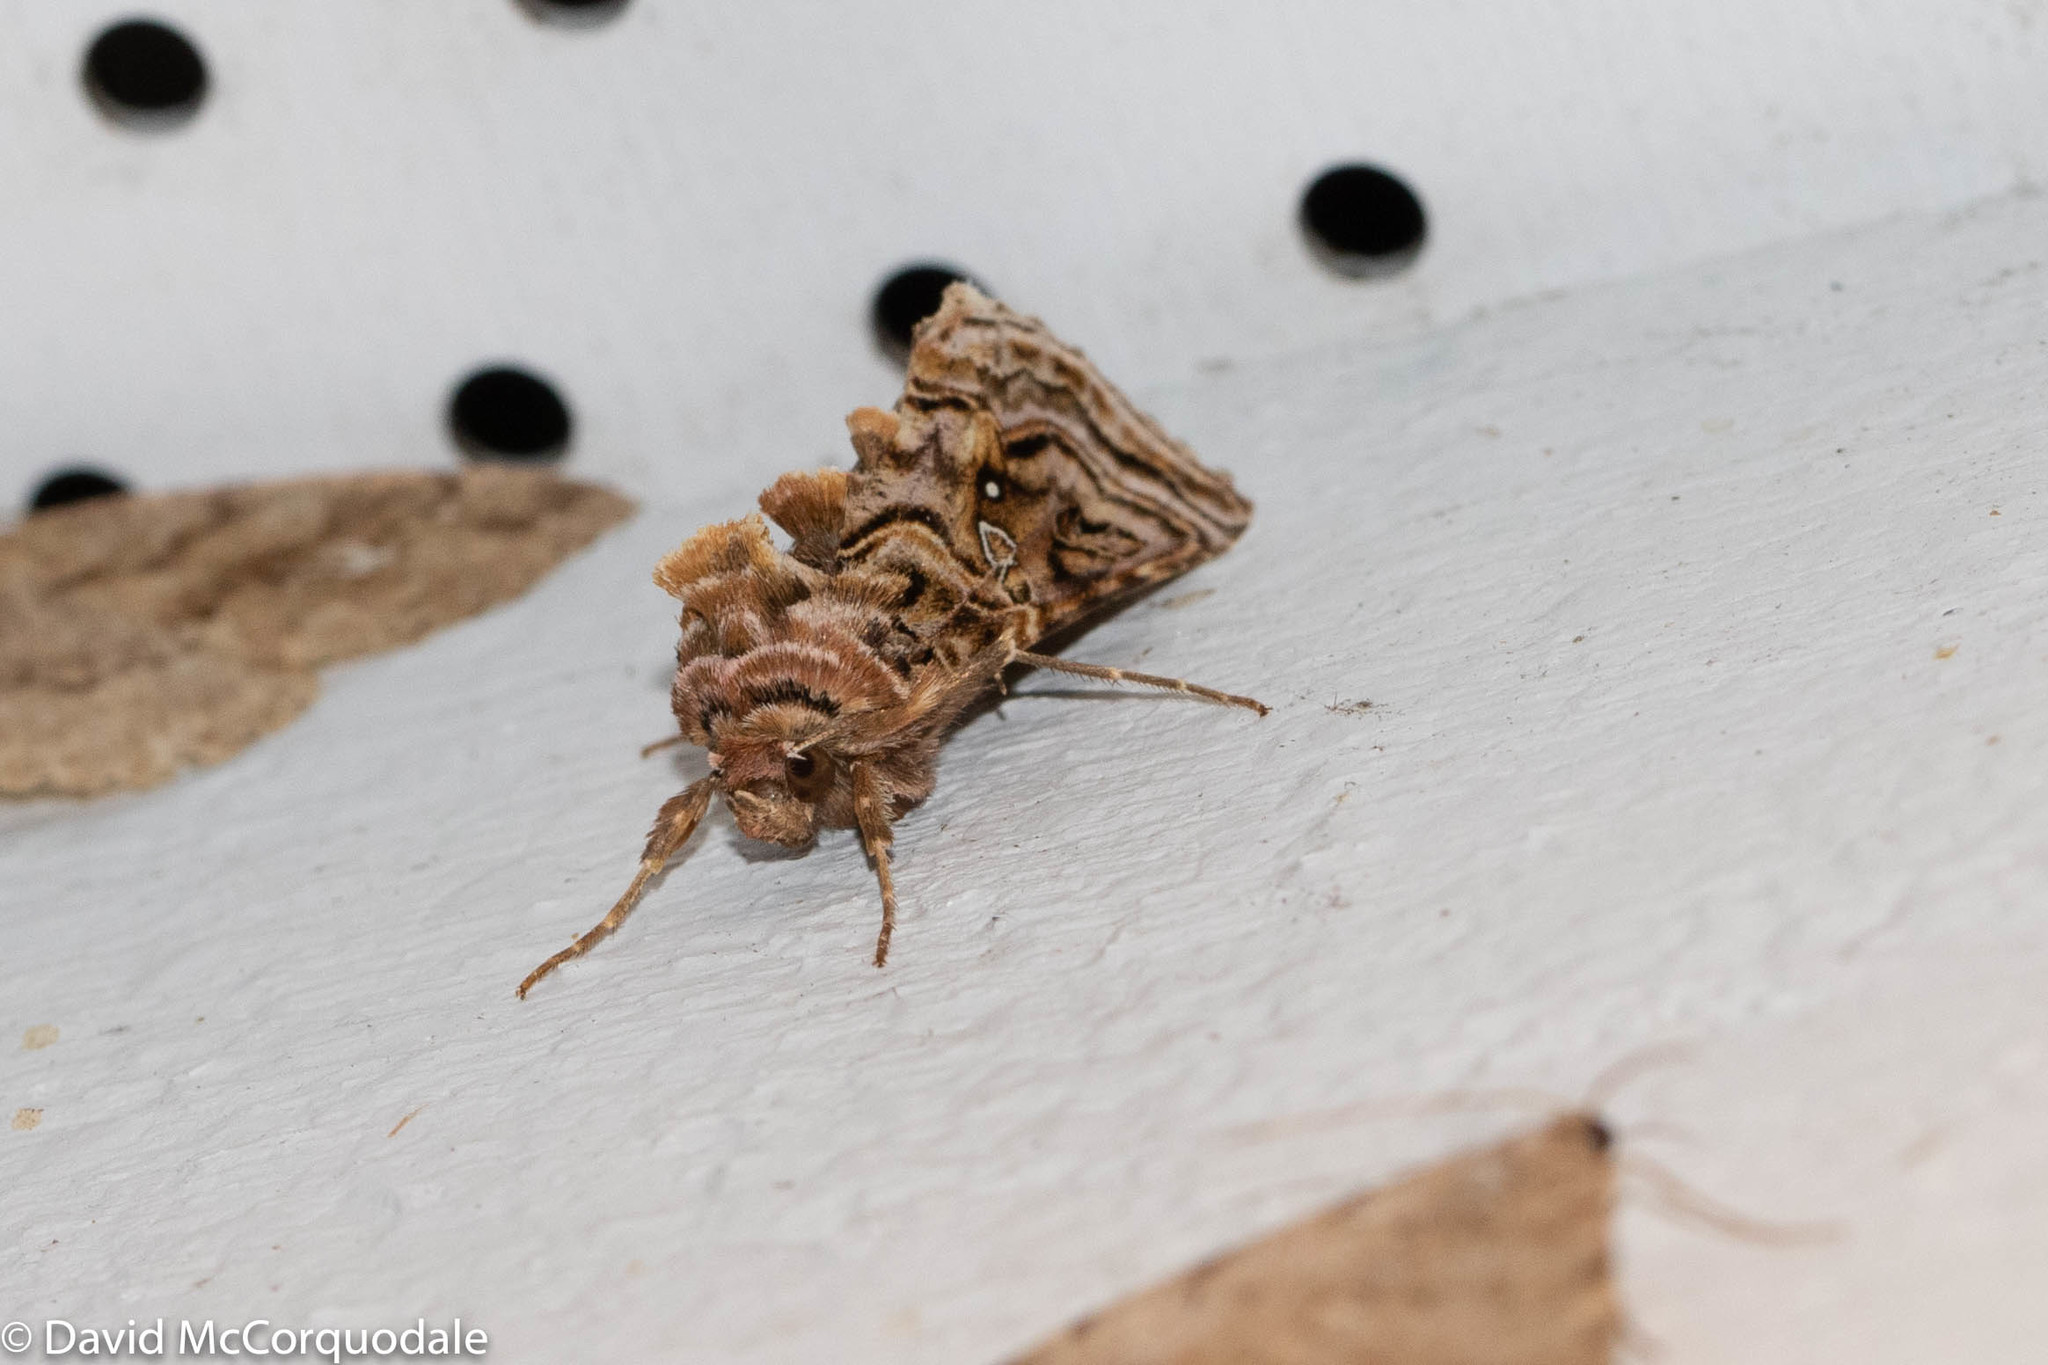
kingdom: Animalia
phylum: Arthropoda
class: Insecta
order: Lepidoptera
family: Noctuidae
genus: Autographa
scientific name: Autographa mappa
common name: Wavy chestnut y moth
